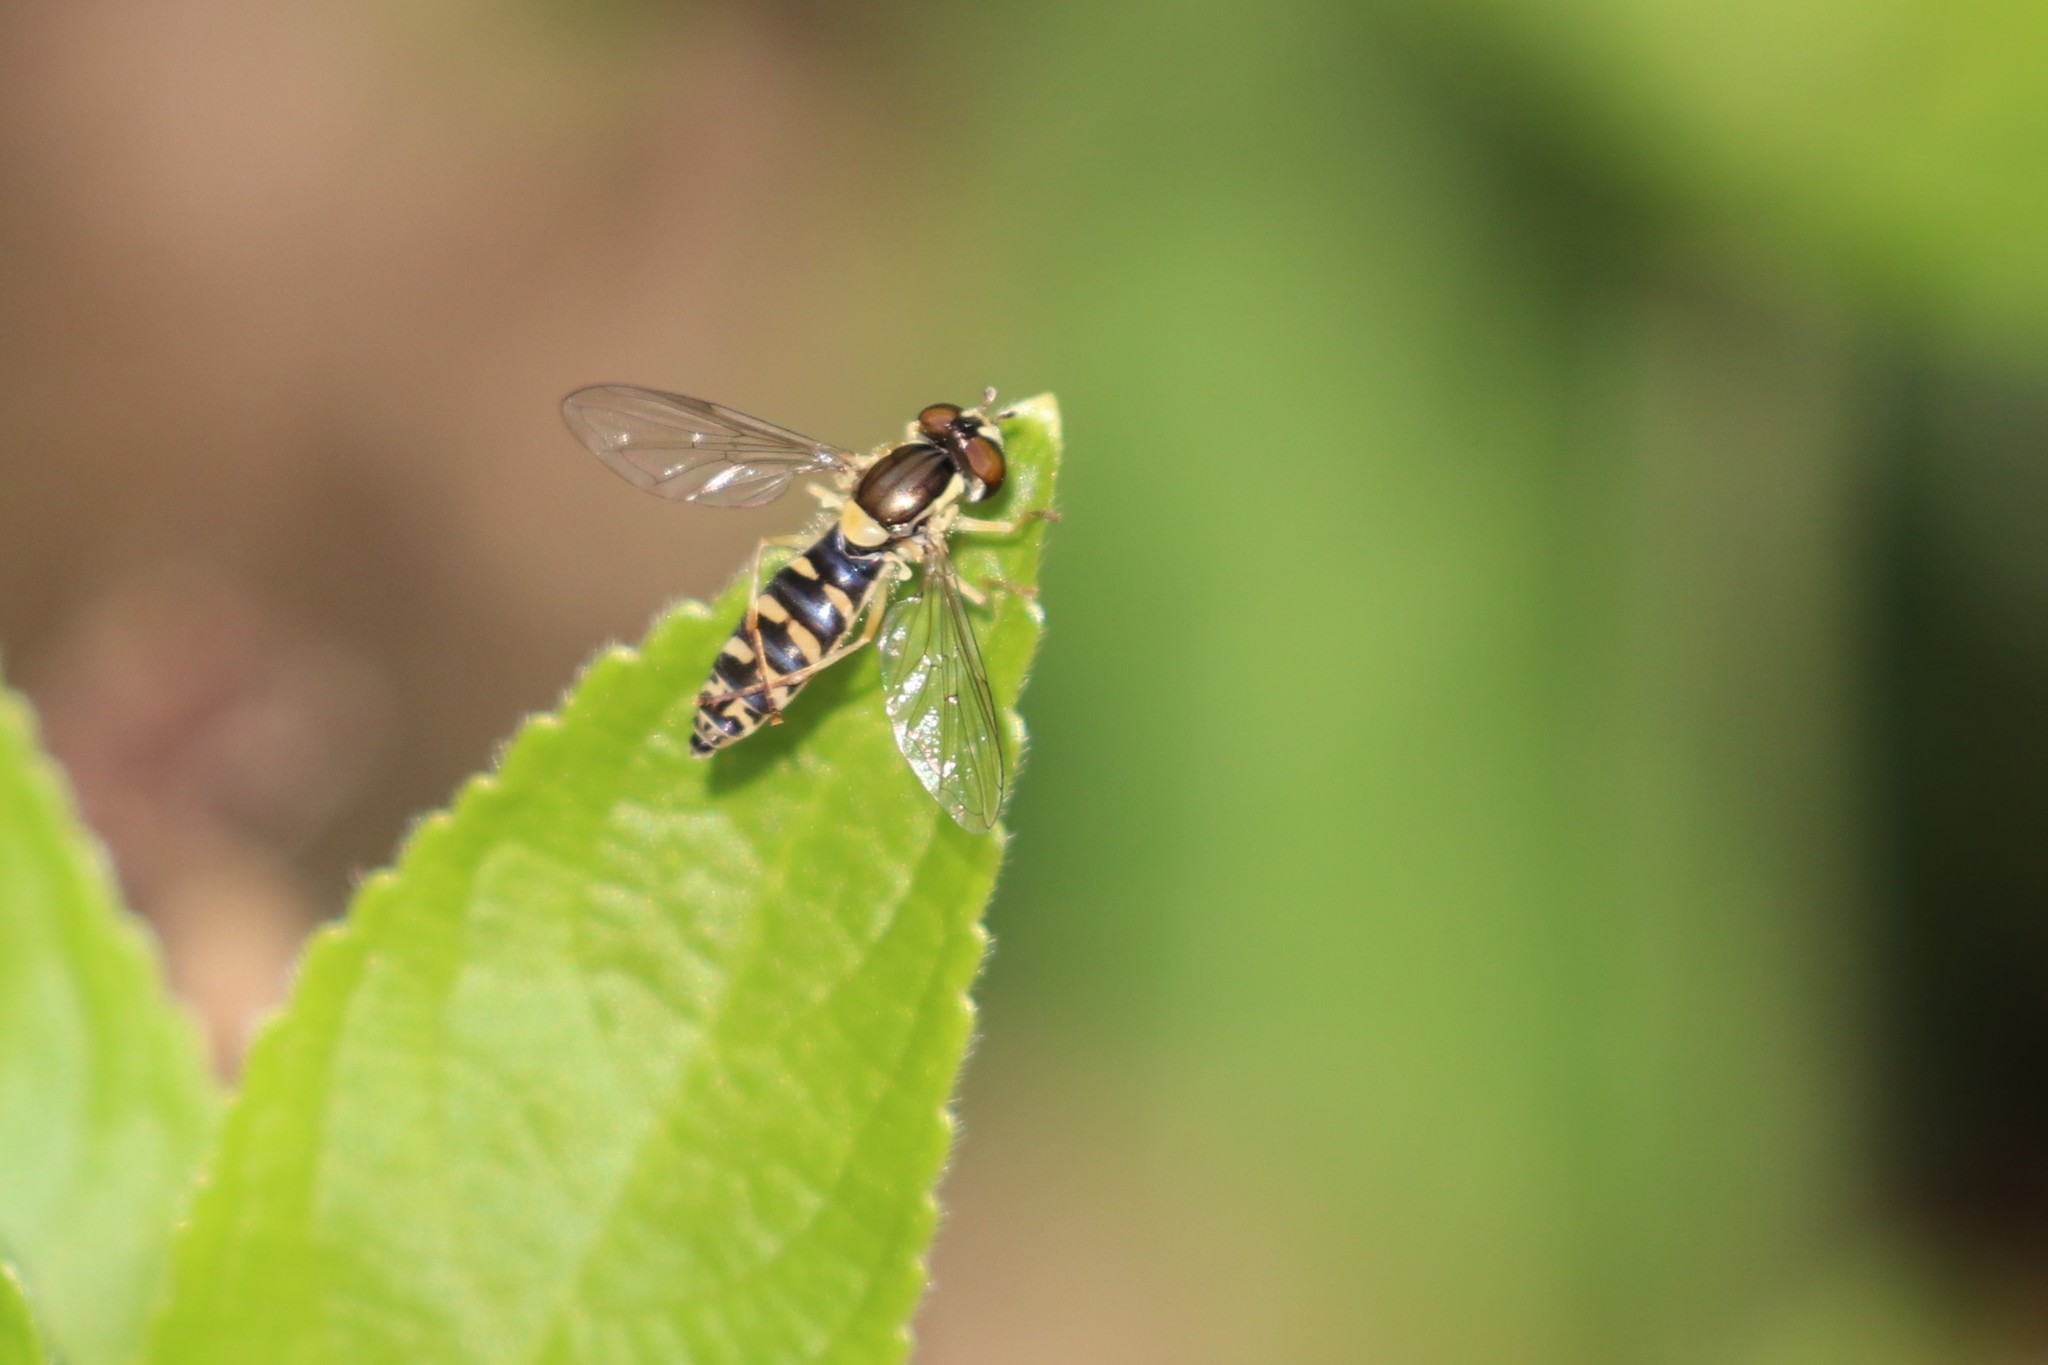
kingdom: Animalia
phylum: Arthropoda
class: Insecta
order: Diptera
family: Syrphidae
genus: Sphaerophoria
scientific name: Sphaerophoria
